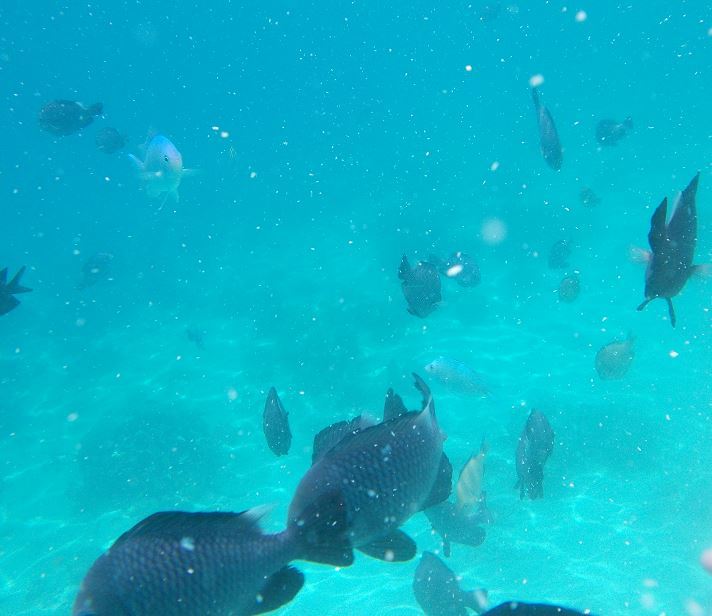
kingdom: Animalia
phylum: Chordata
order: Perciformes
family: Pomacentridae
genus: Dascyllus
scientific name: Dascyllus trimaculatus
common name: Threespot dascyllus
